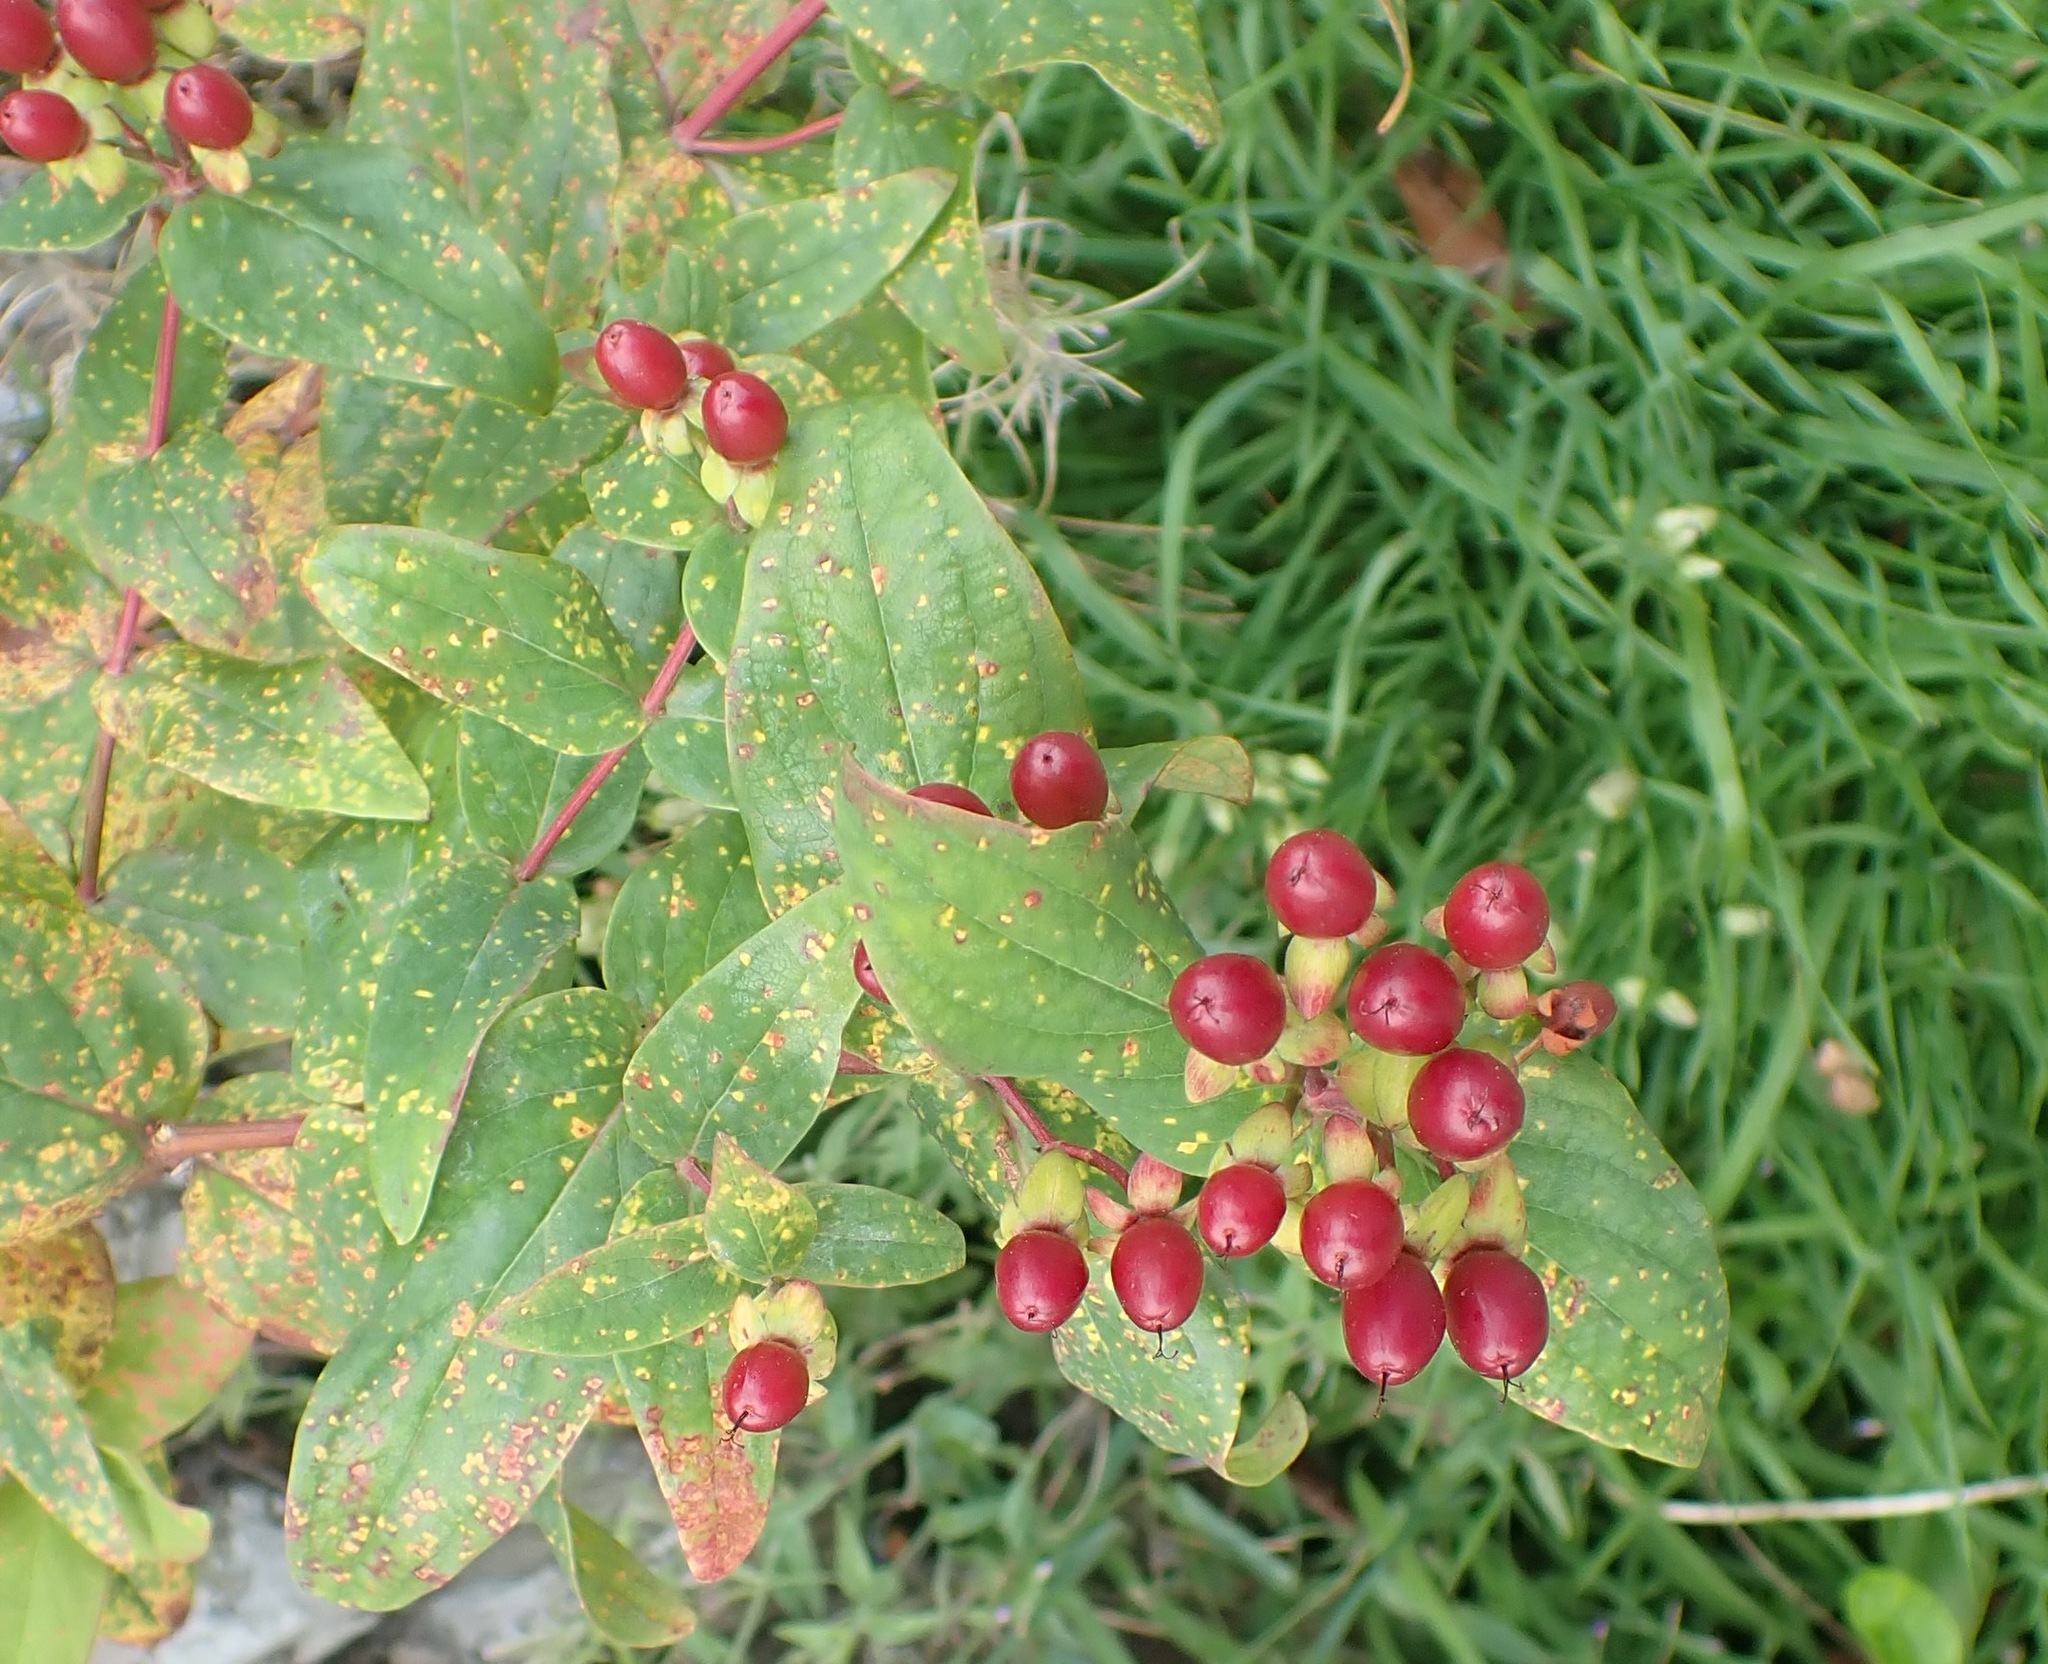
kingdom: Plantae
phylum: Tracheophyta
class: Magnoliopsida
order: Malpighiales
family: Hypericaceae
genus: Hypericum
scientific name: Hypericum androsaemum
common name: Sweet-amber
